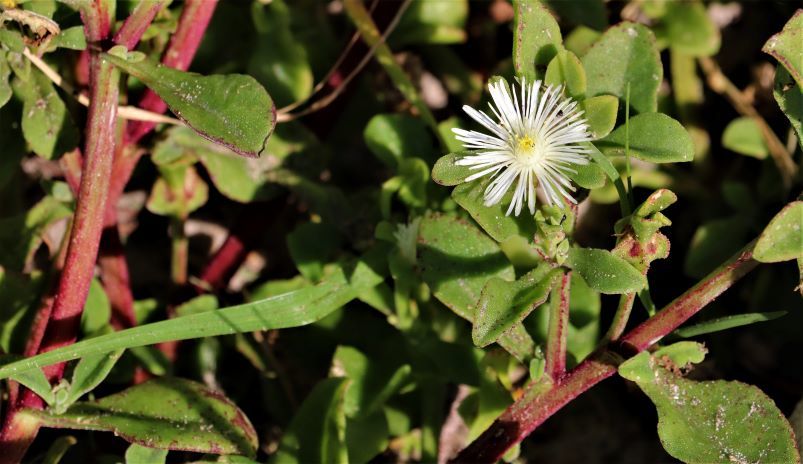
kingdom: Plantae
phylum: Tracheophyta
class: Magnoliopsida
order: Caryophyllales
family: Aizoaceae
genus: Mesembryanthemum
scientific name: Mesembryanthemum aitonis
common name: Angled iceplant
